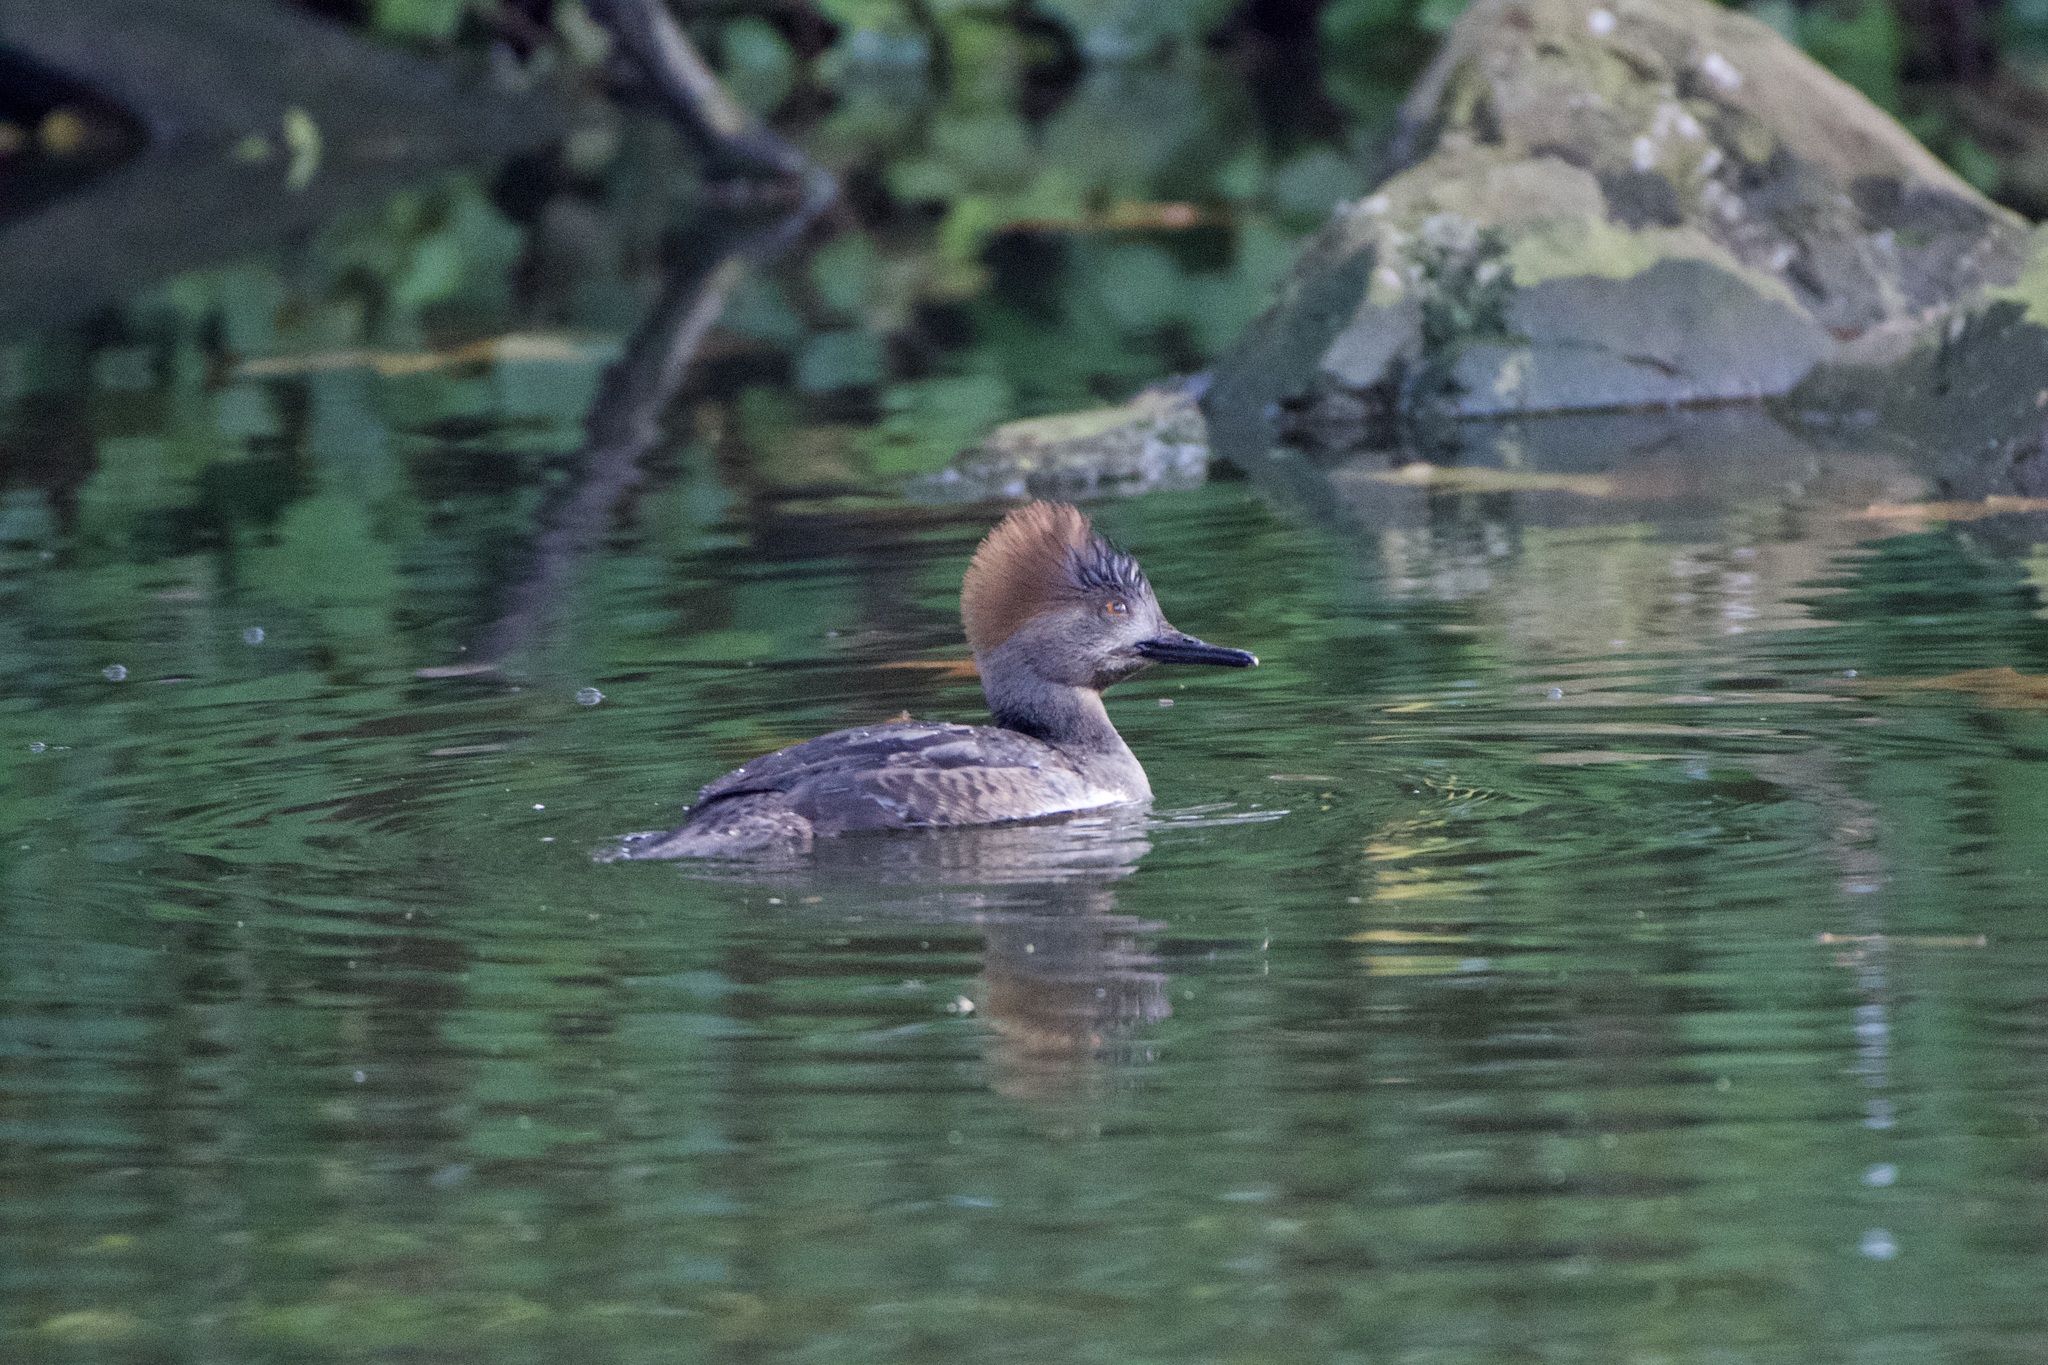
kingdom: Animalia
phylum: Chordata
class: Aves
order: Anseriformes
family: Anatidae
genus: Lophodytes
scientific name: Lophodytes cucullatus
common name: Hooded merganser
